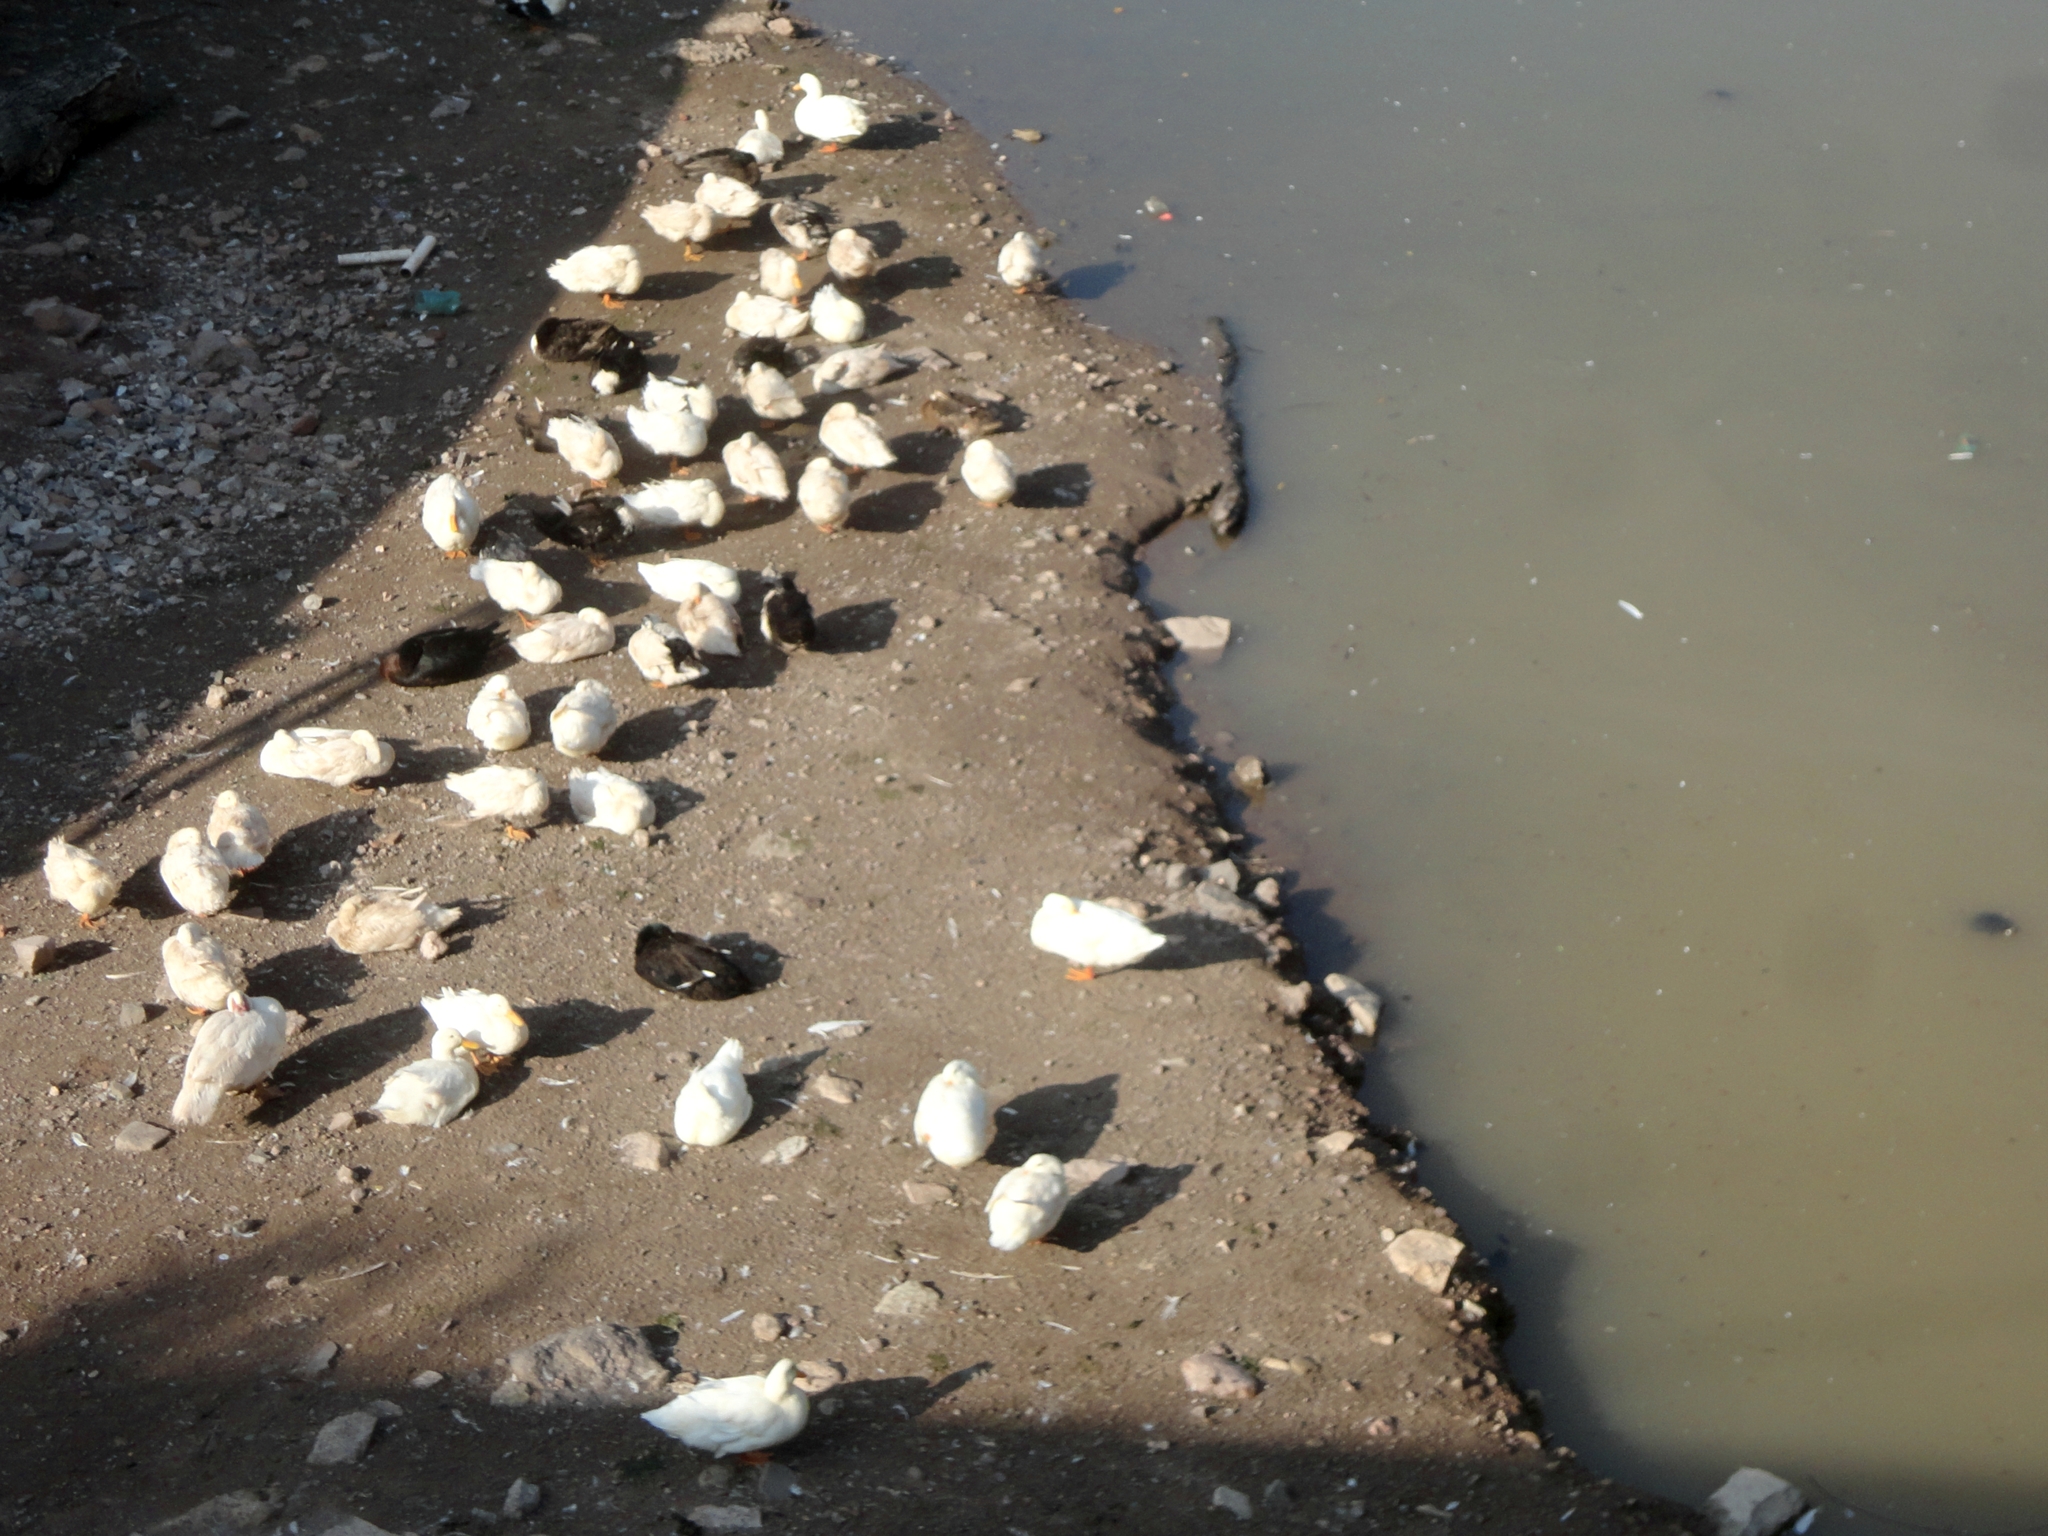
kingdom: Animalia
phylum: Chordata
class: Aves
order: Anseriformes
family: Anatidae
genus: Anas
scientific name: Anas platyrhynchos
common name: Mallard
